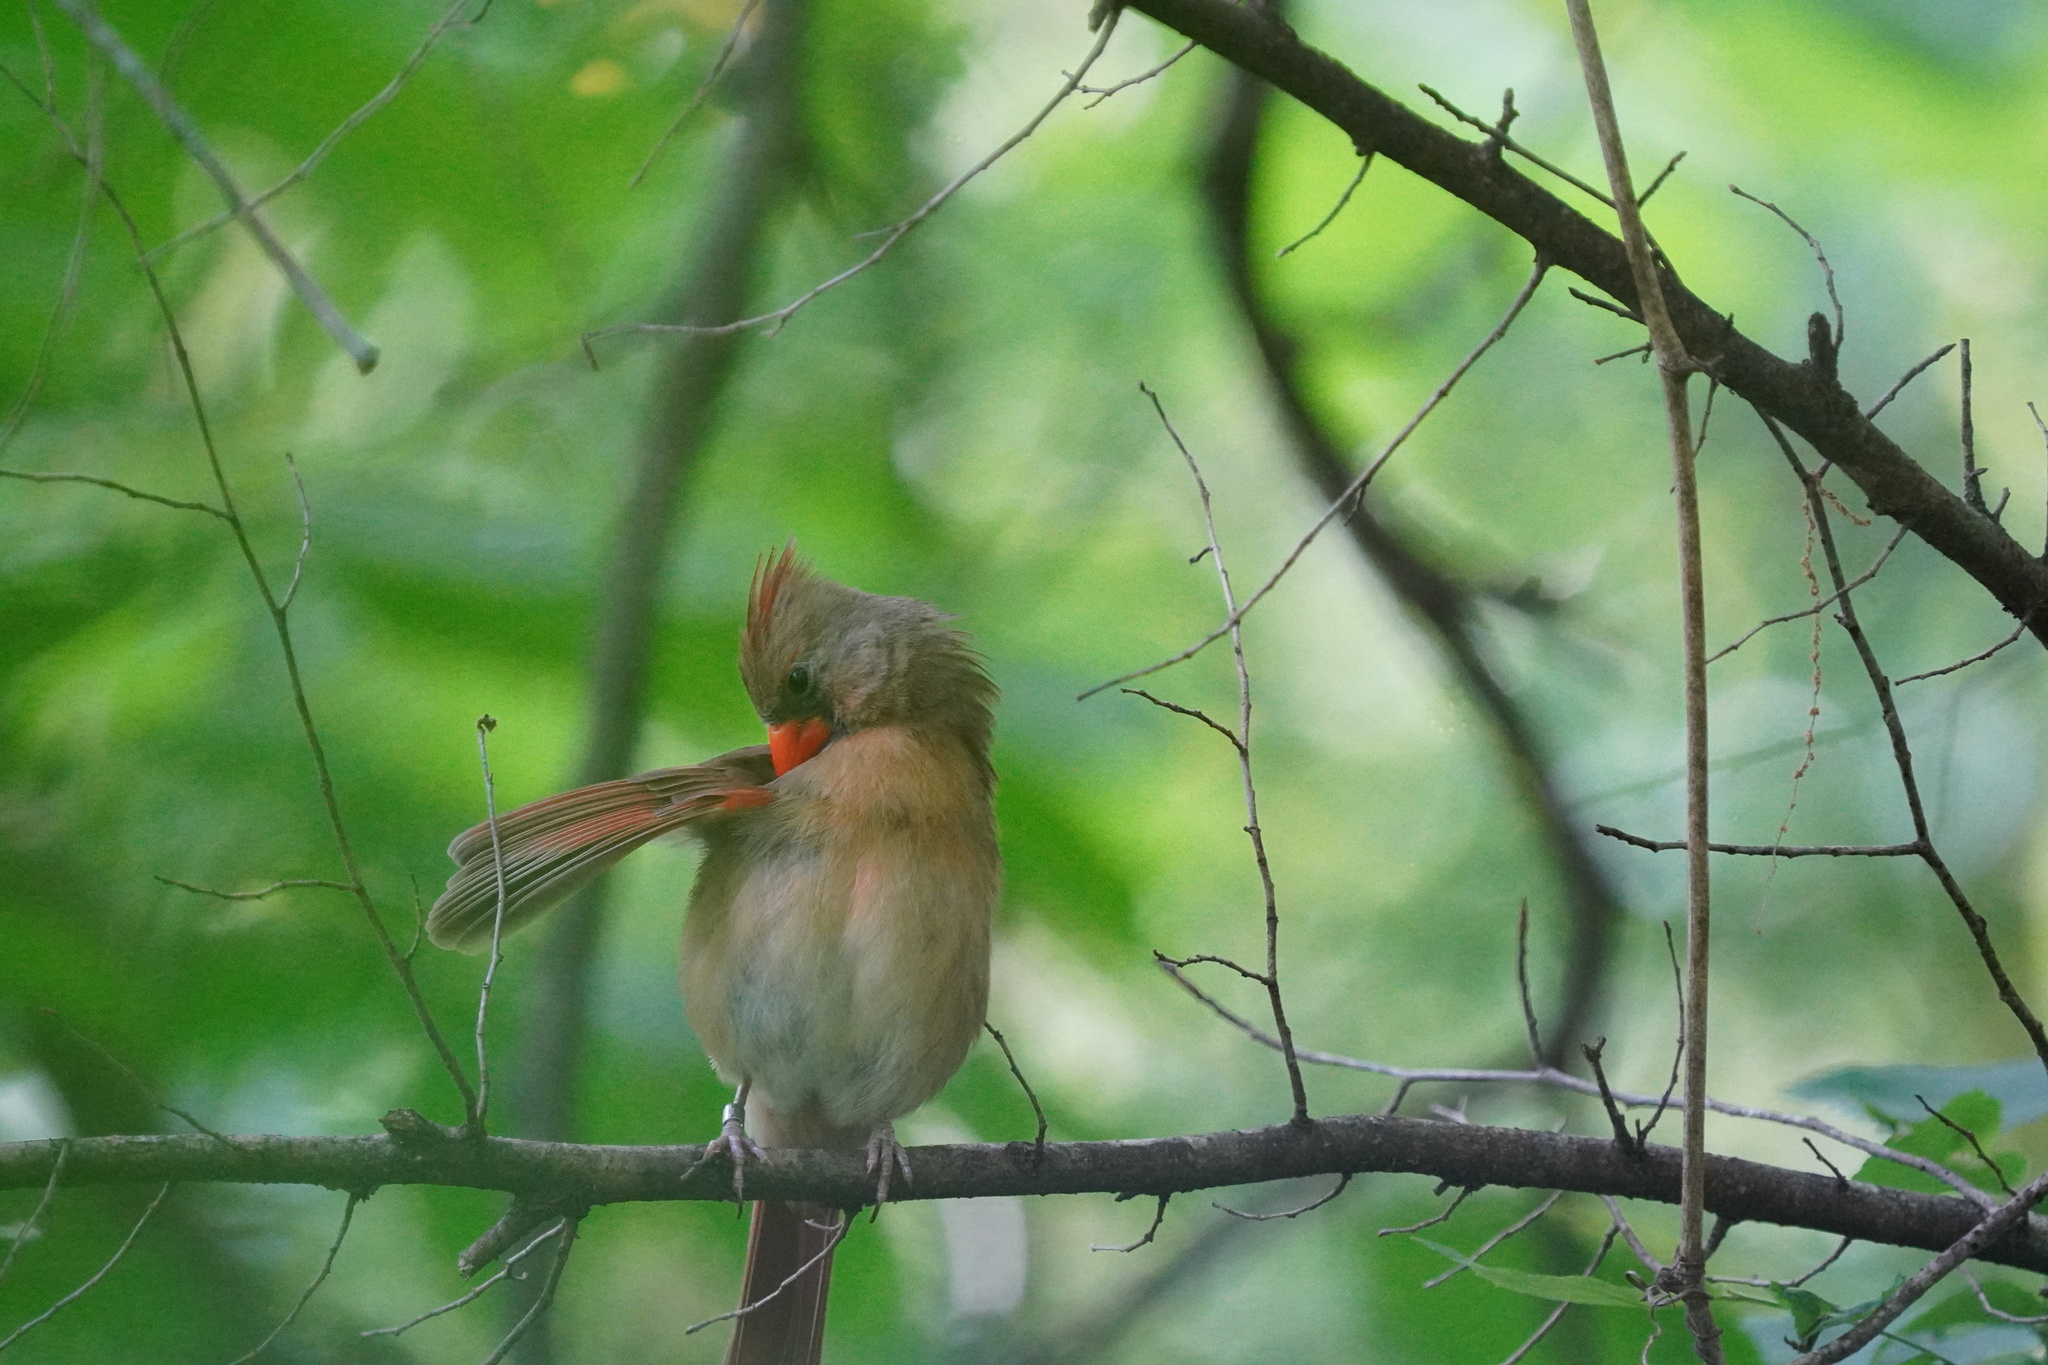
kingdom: Animalia
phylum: Chordata
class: Aves
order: Passeriformes
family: Cardinalidae
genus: Cardinalis
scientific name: Cardinalis cardinalis
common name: Northern cardinal
